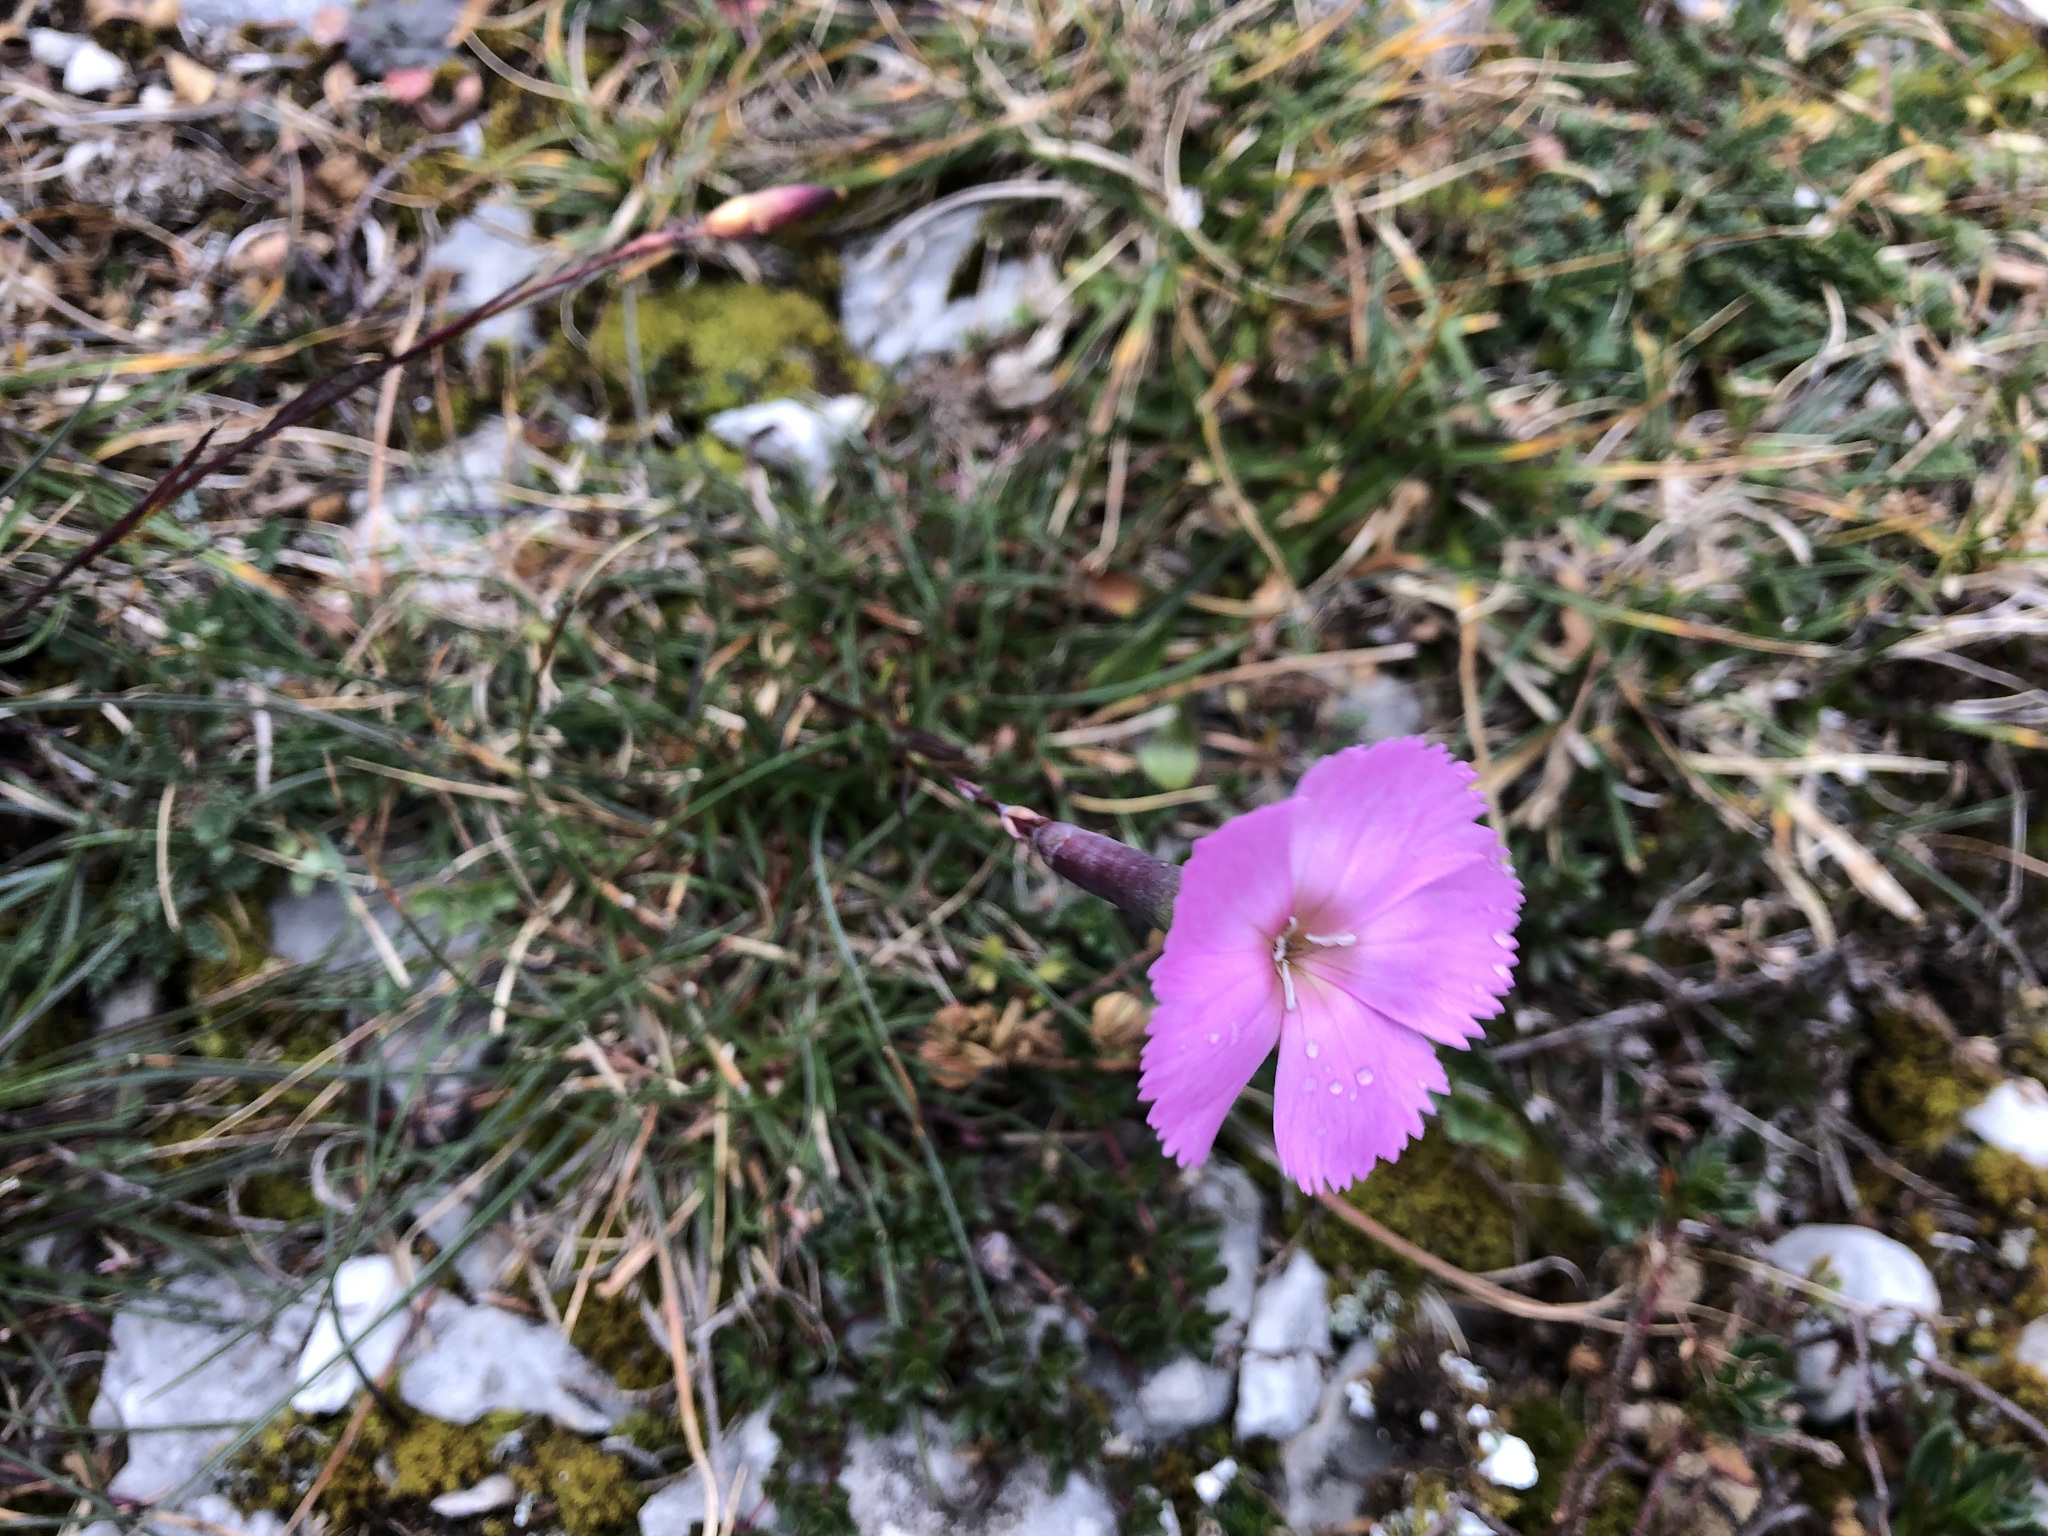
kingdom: Plantae
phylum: Tracheophyta
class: Magnoliopsida
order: Caryophyllales
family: Caryophyllaceae
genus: Dianthus
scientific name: Dianthus sylvestris
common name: Wood pink
